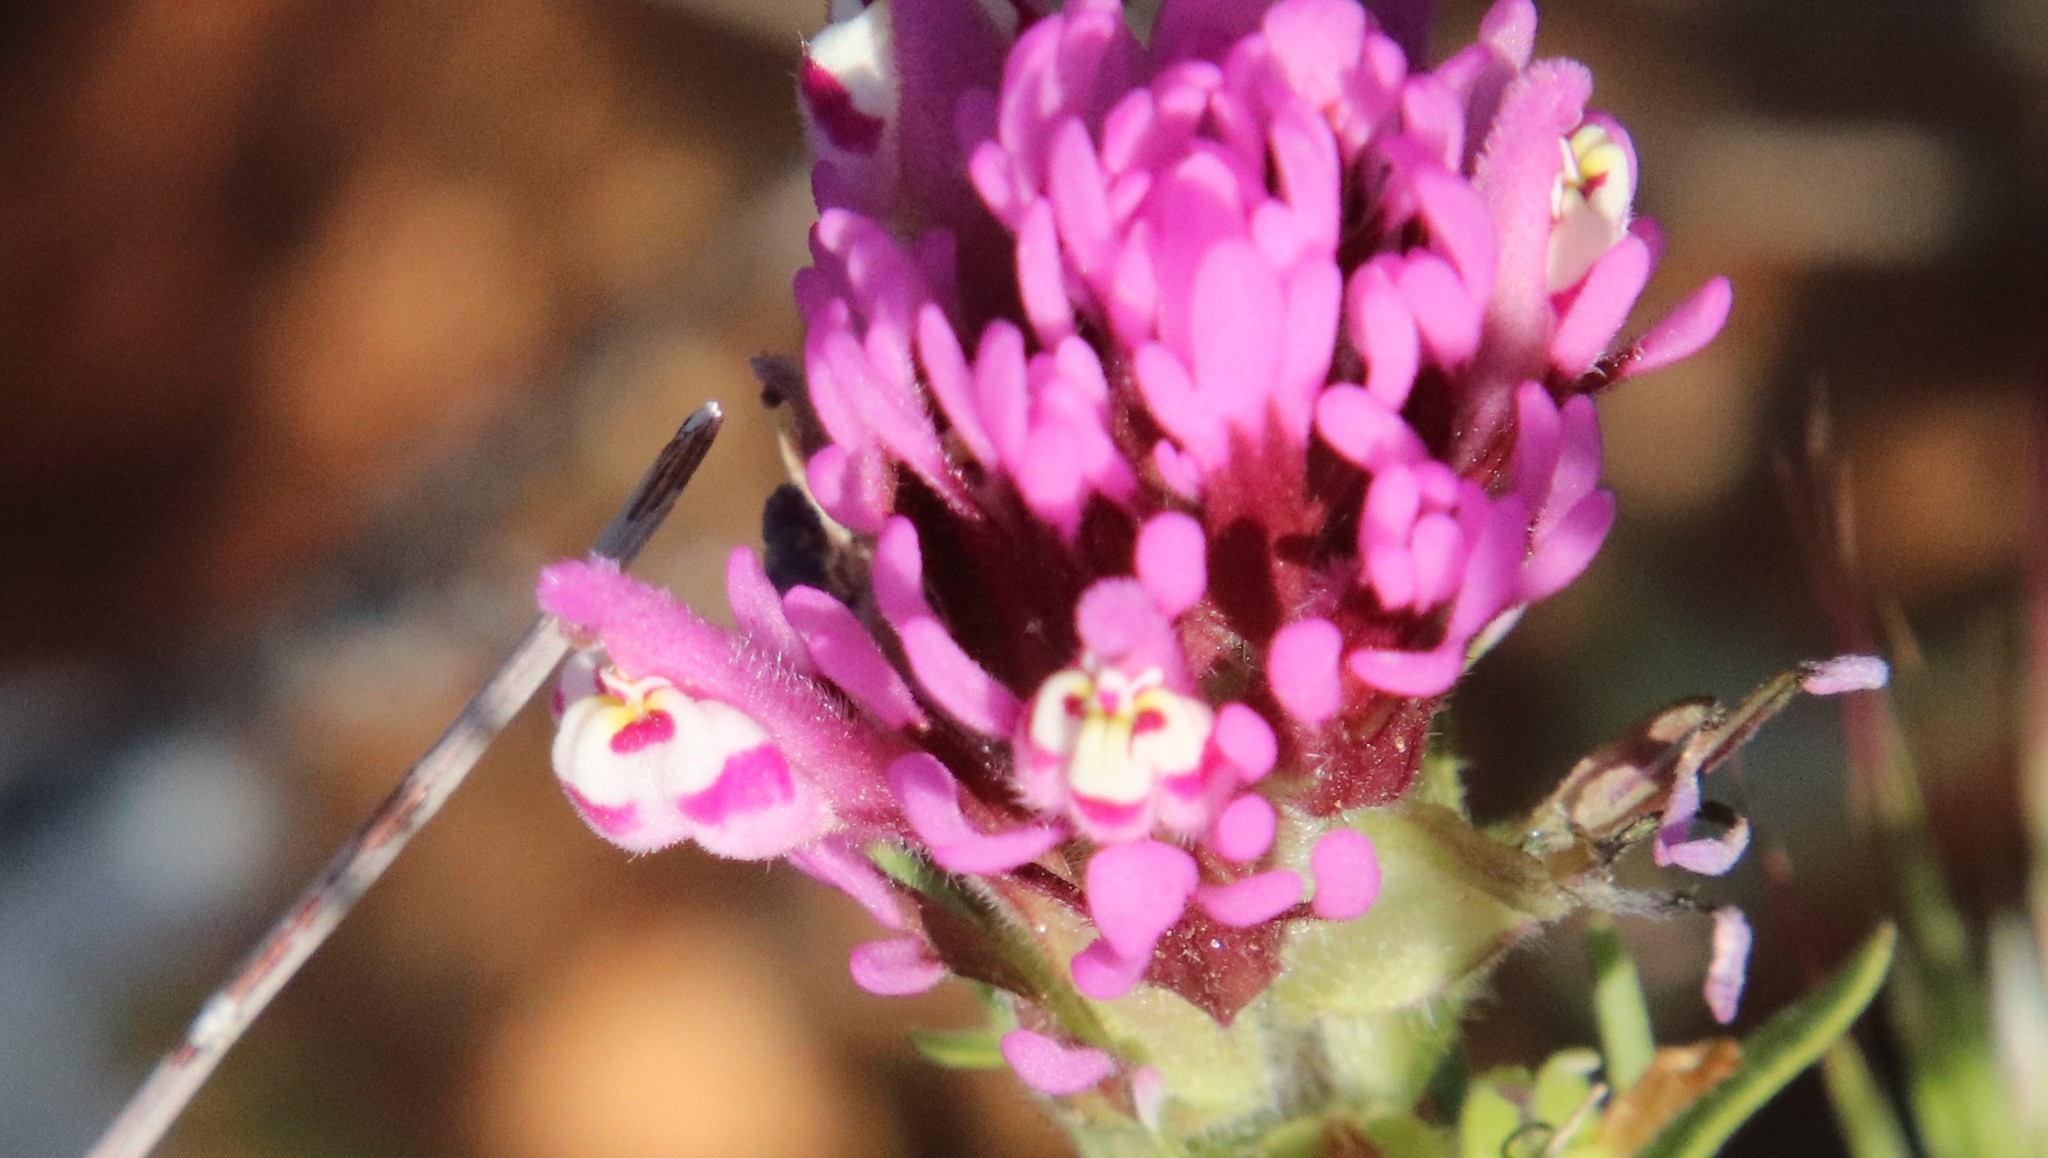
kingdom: Plantae
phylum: Tracheophyta
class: Magnoliopsida
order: Lamiales
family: Orobanchaceae
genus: Castilleja
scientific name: Castilleja exserta
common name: Purple owl-clover
